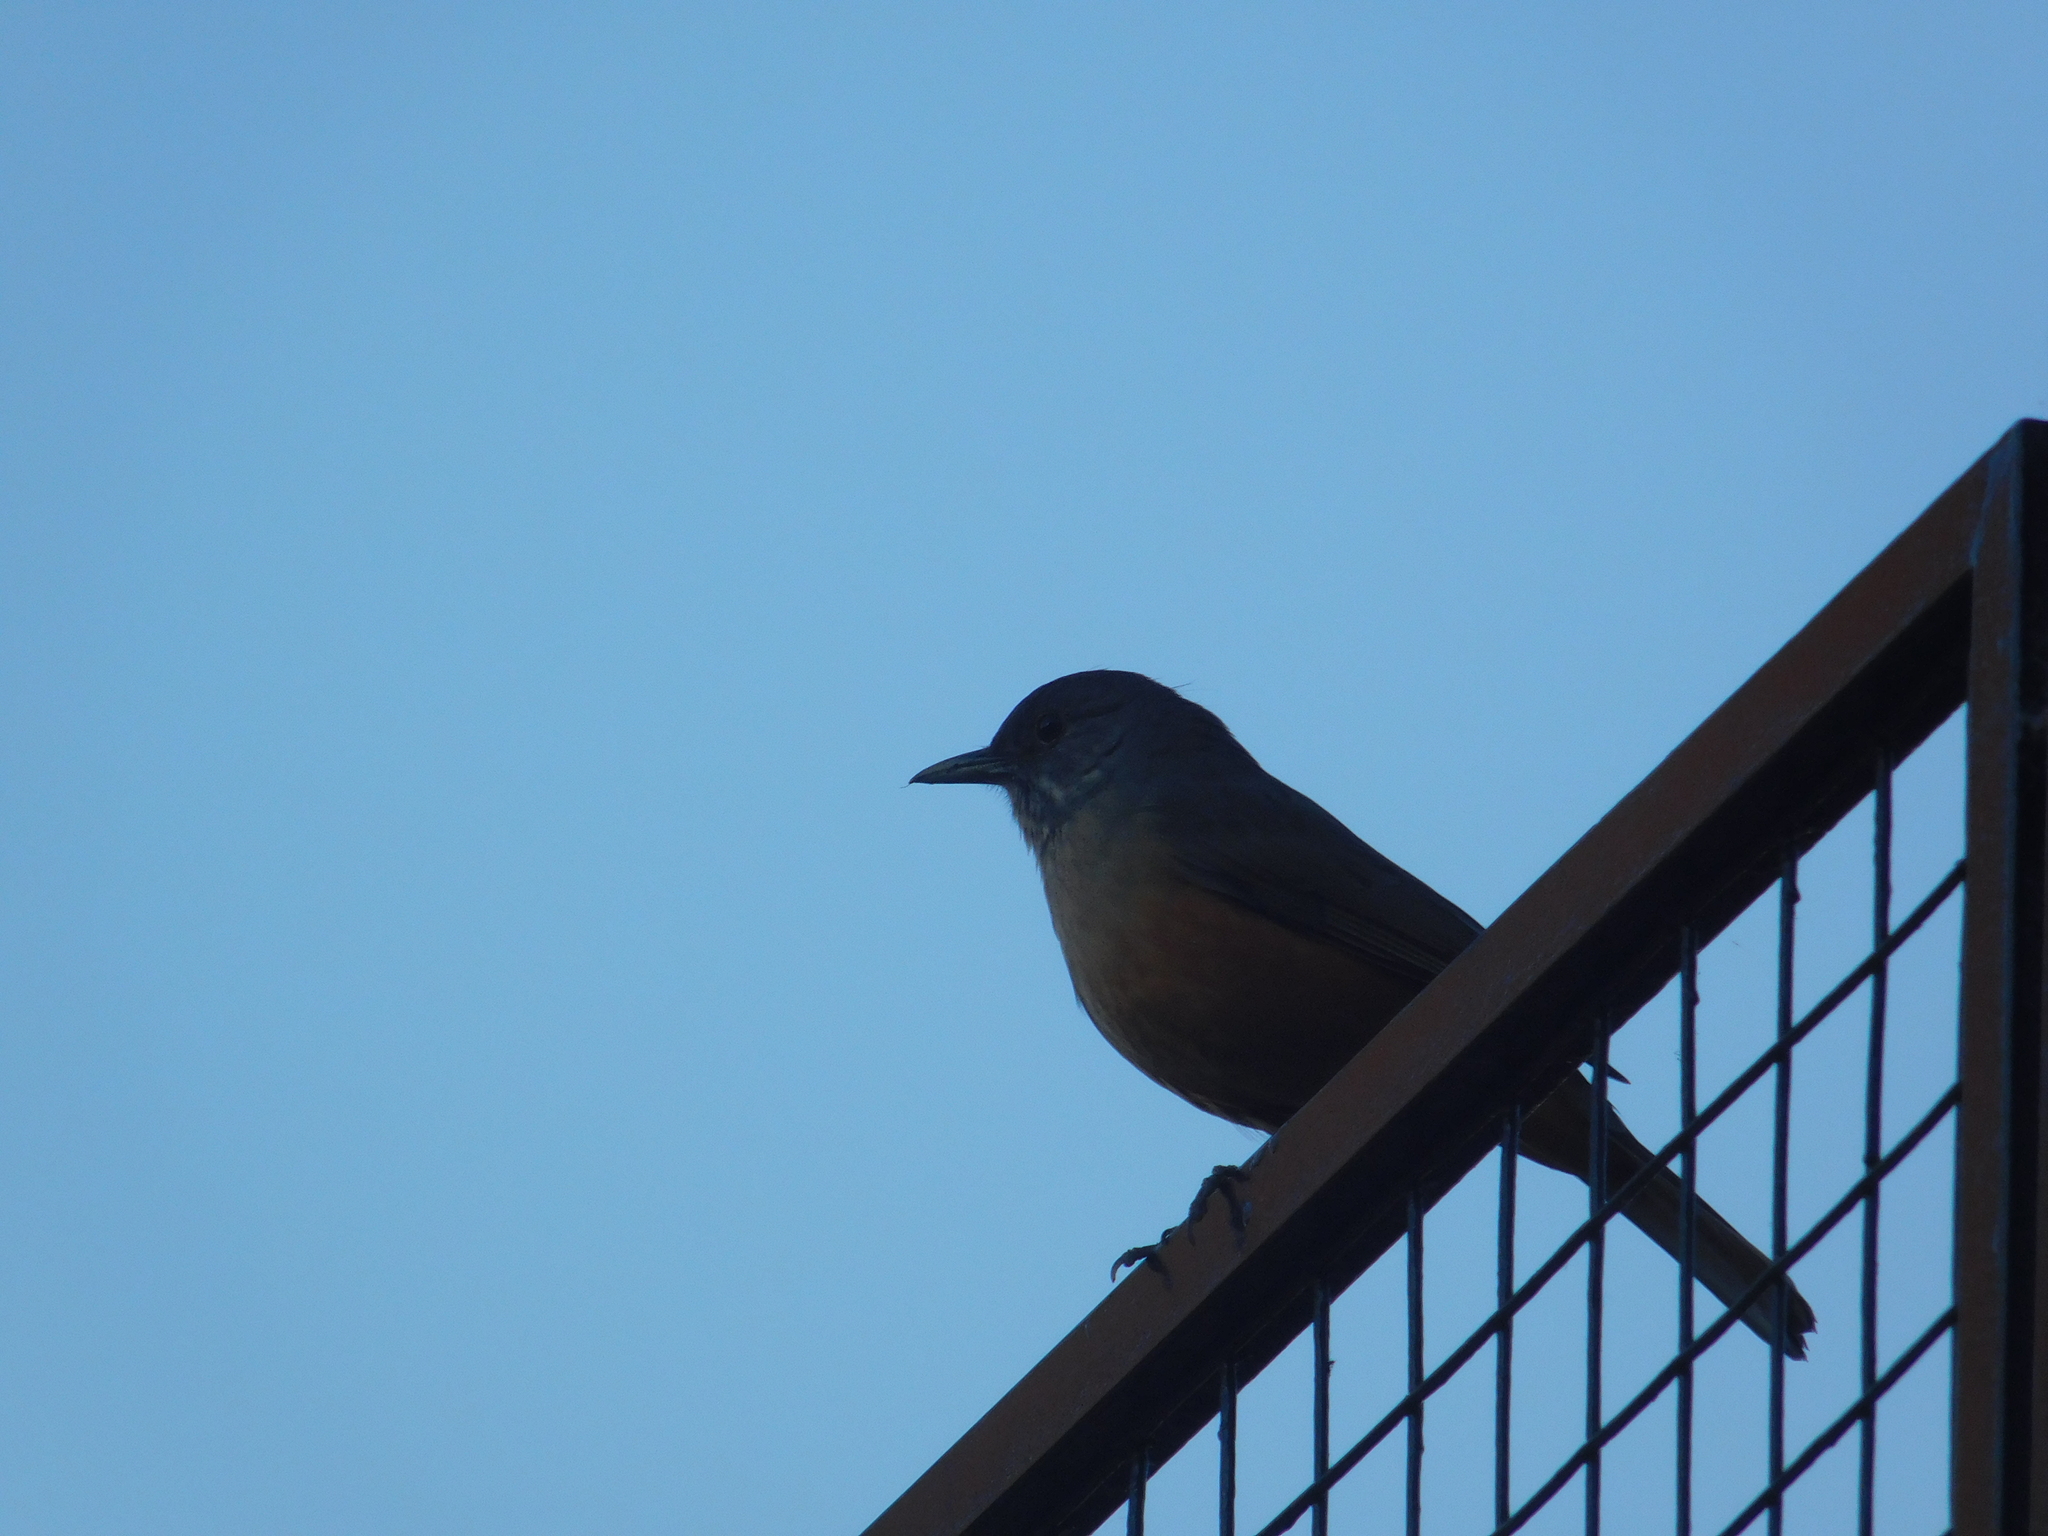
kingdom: Animalia
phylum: Chordata
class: Aves
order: Passeriformes
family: Turdidae
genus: Turdus
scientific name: Turdus rufiventris
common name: Rufous-bellied thrush
